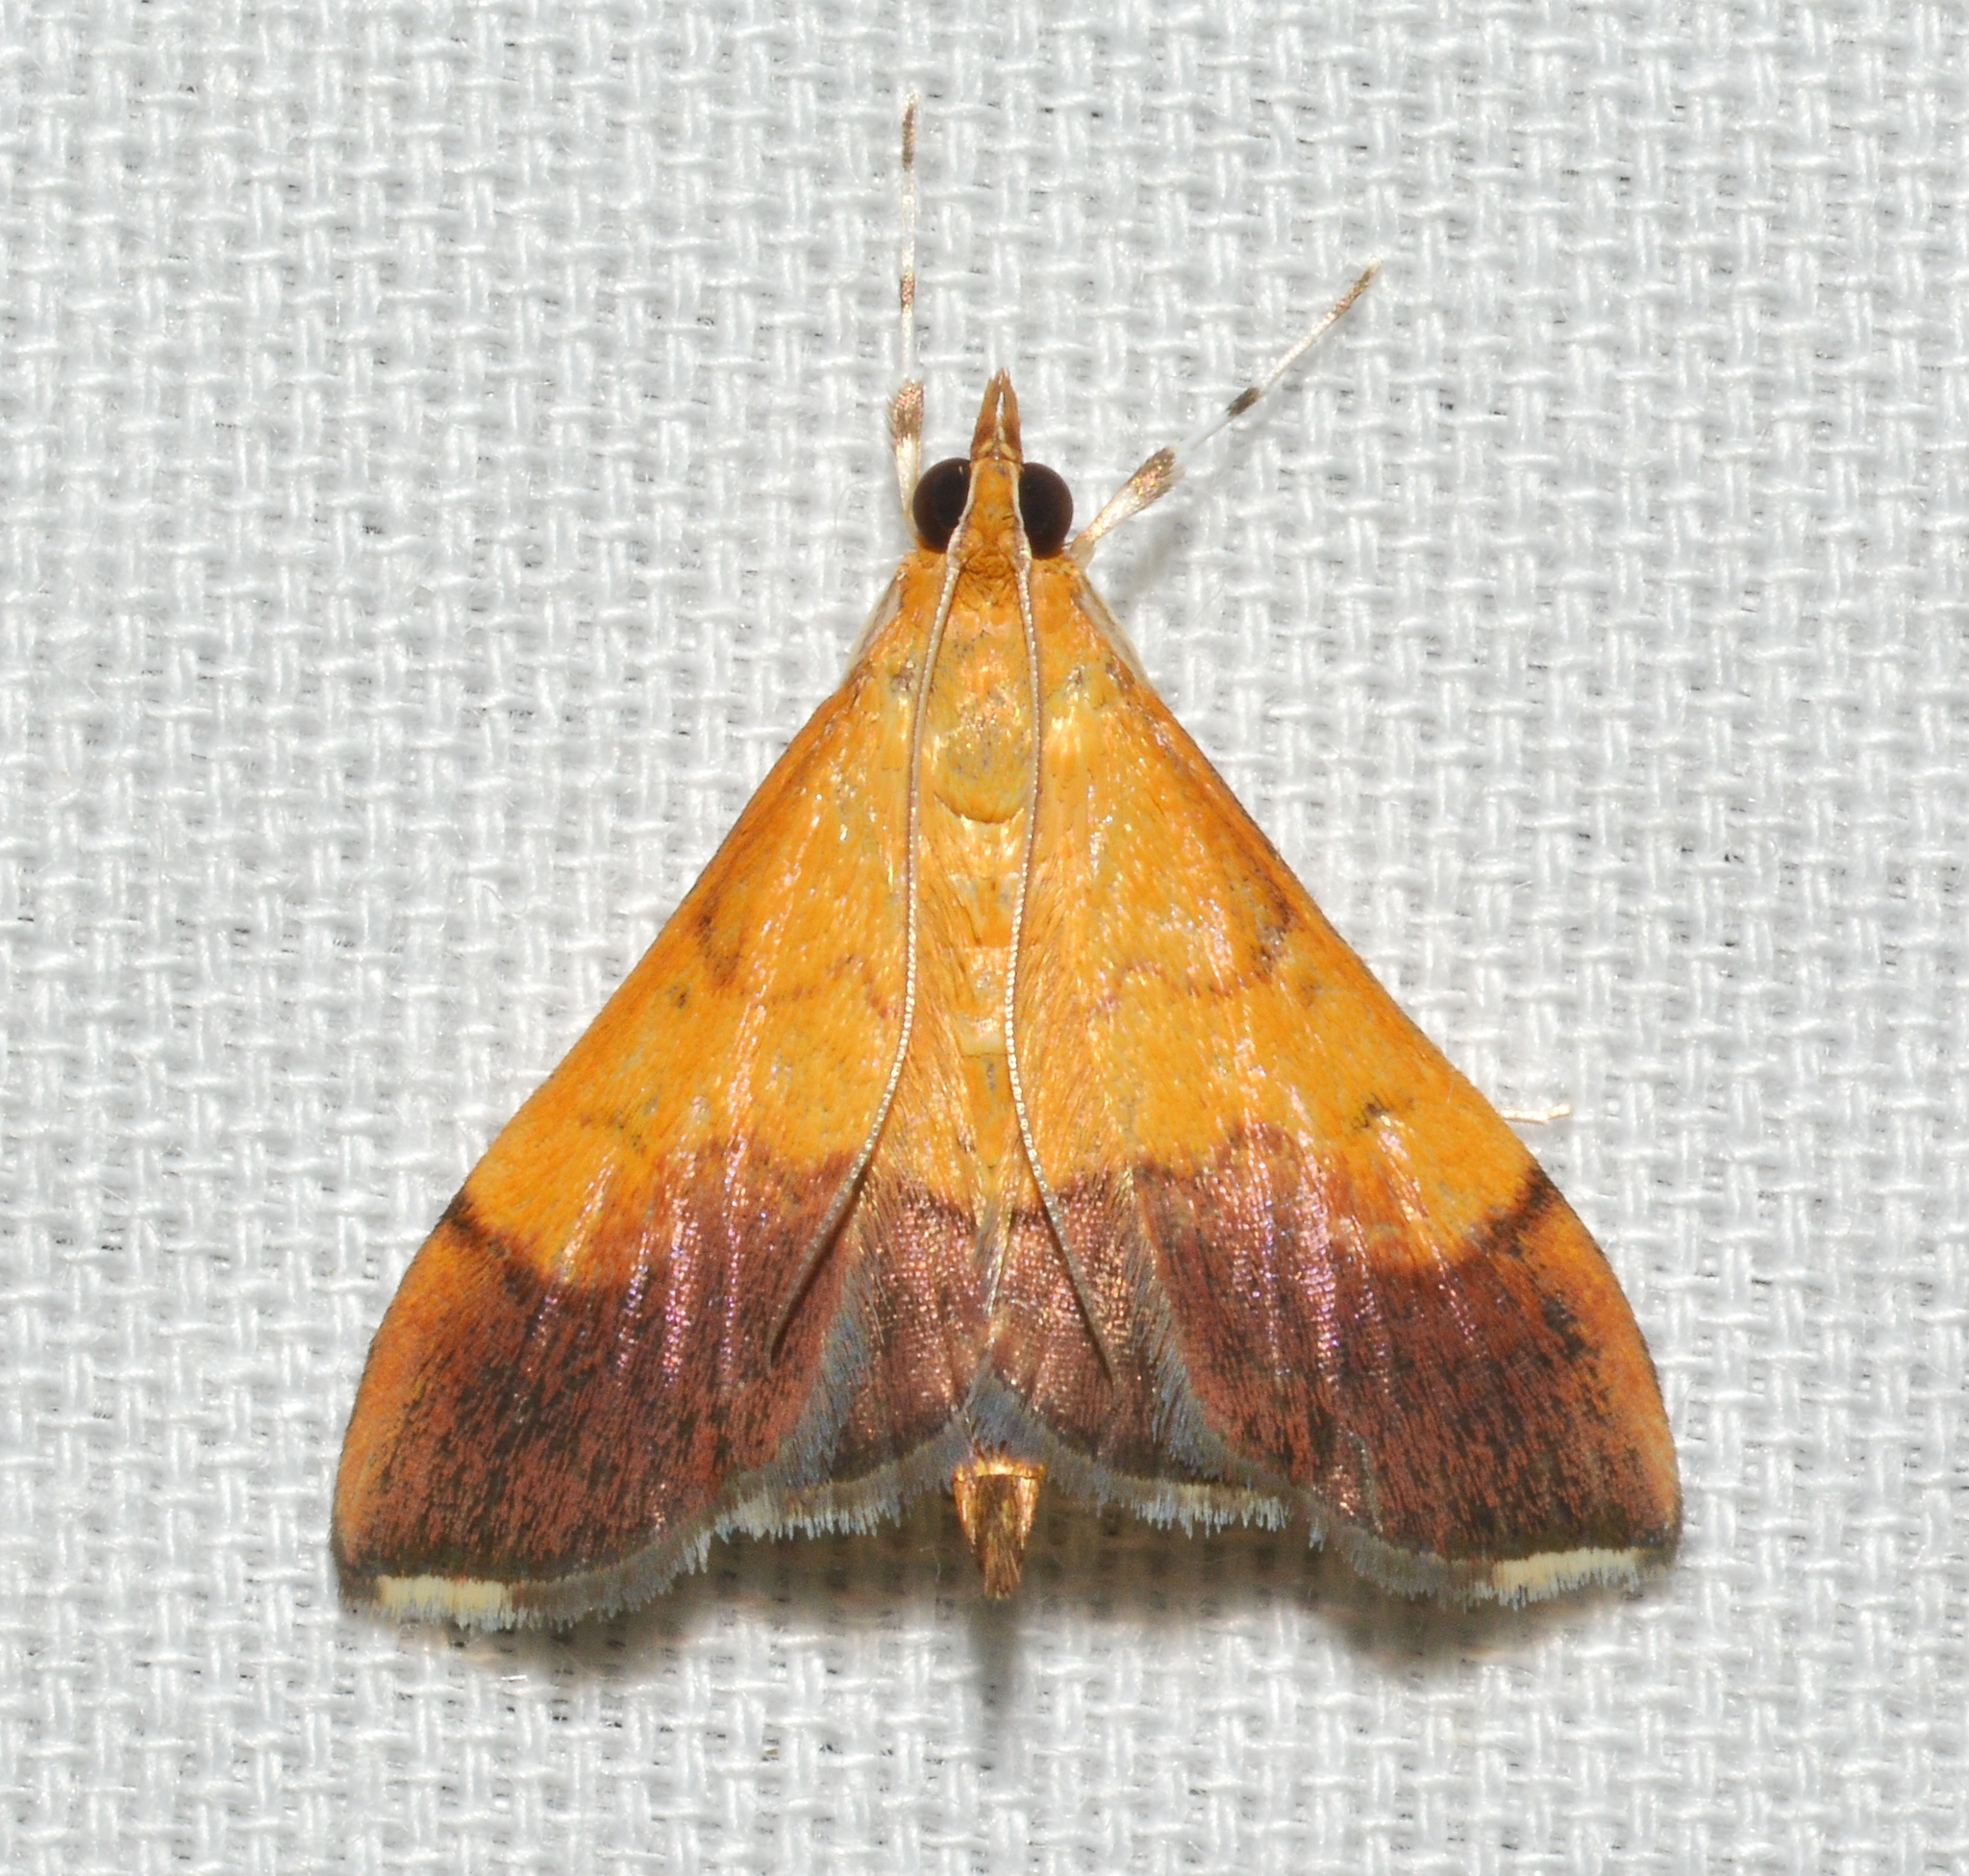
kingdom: Animalia
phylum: Arthropoda
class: Insecta
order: Lepidoptera
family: Crambidae
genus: Pyrausta
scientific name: Pyrausta bicoloralis
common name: Bicolored pyrausta moth
